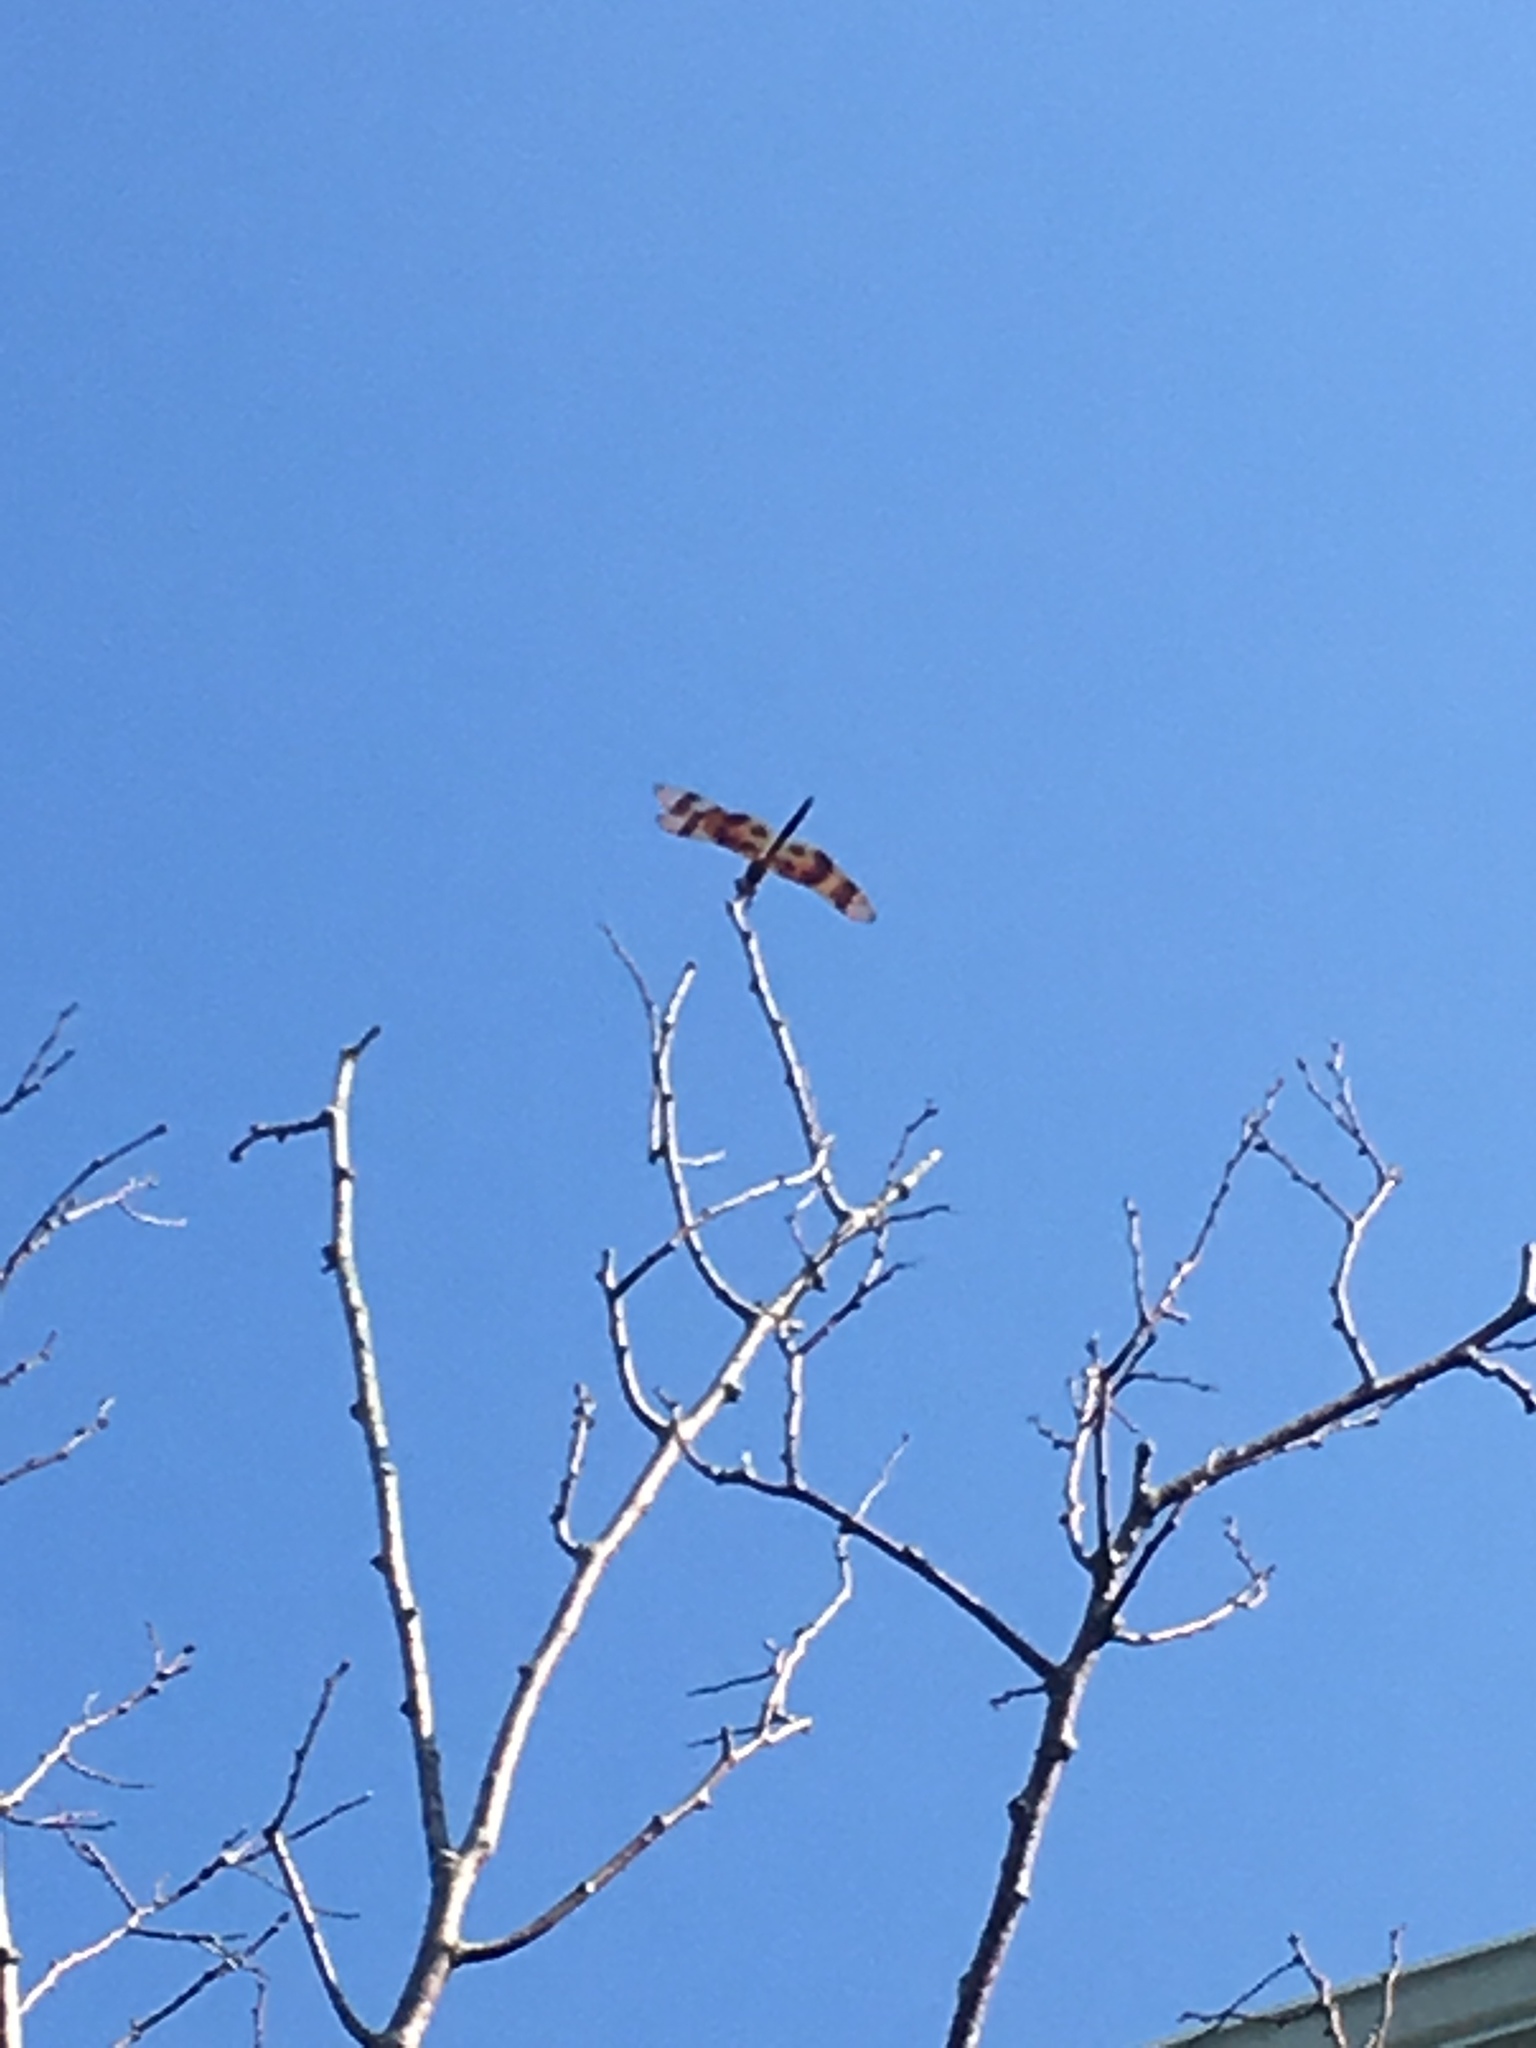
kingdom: Animalia
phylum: Arthropoda
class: Insecta
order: Odonata
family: Libellulidae
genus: Celithemis
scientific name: Celithemis eponina
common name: Halloween pennant
